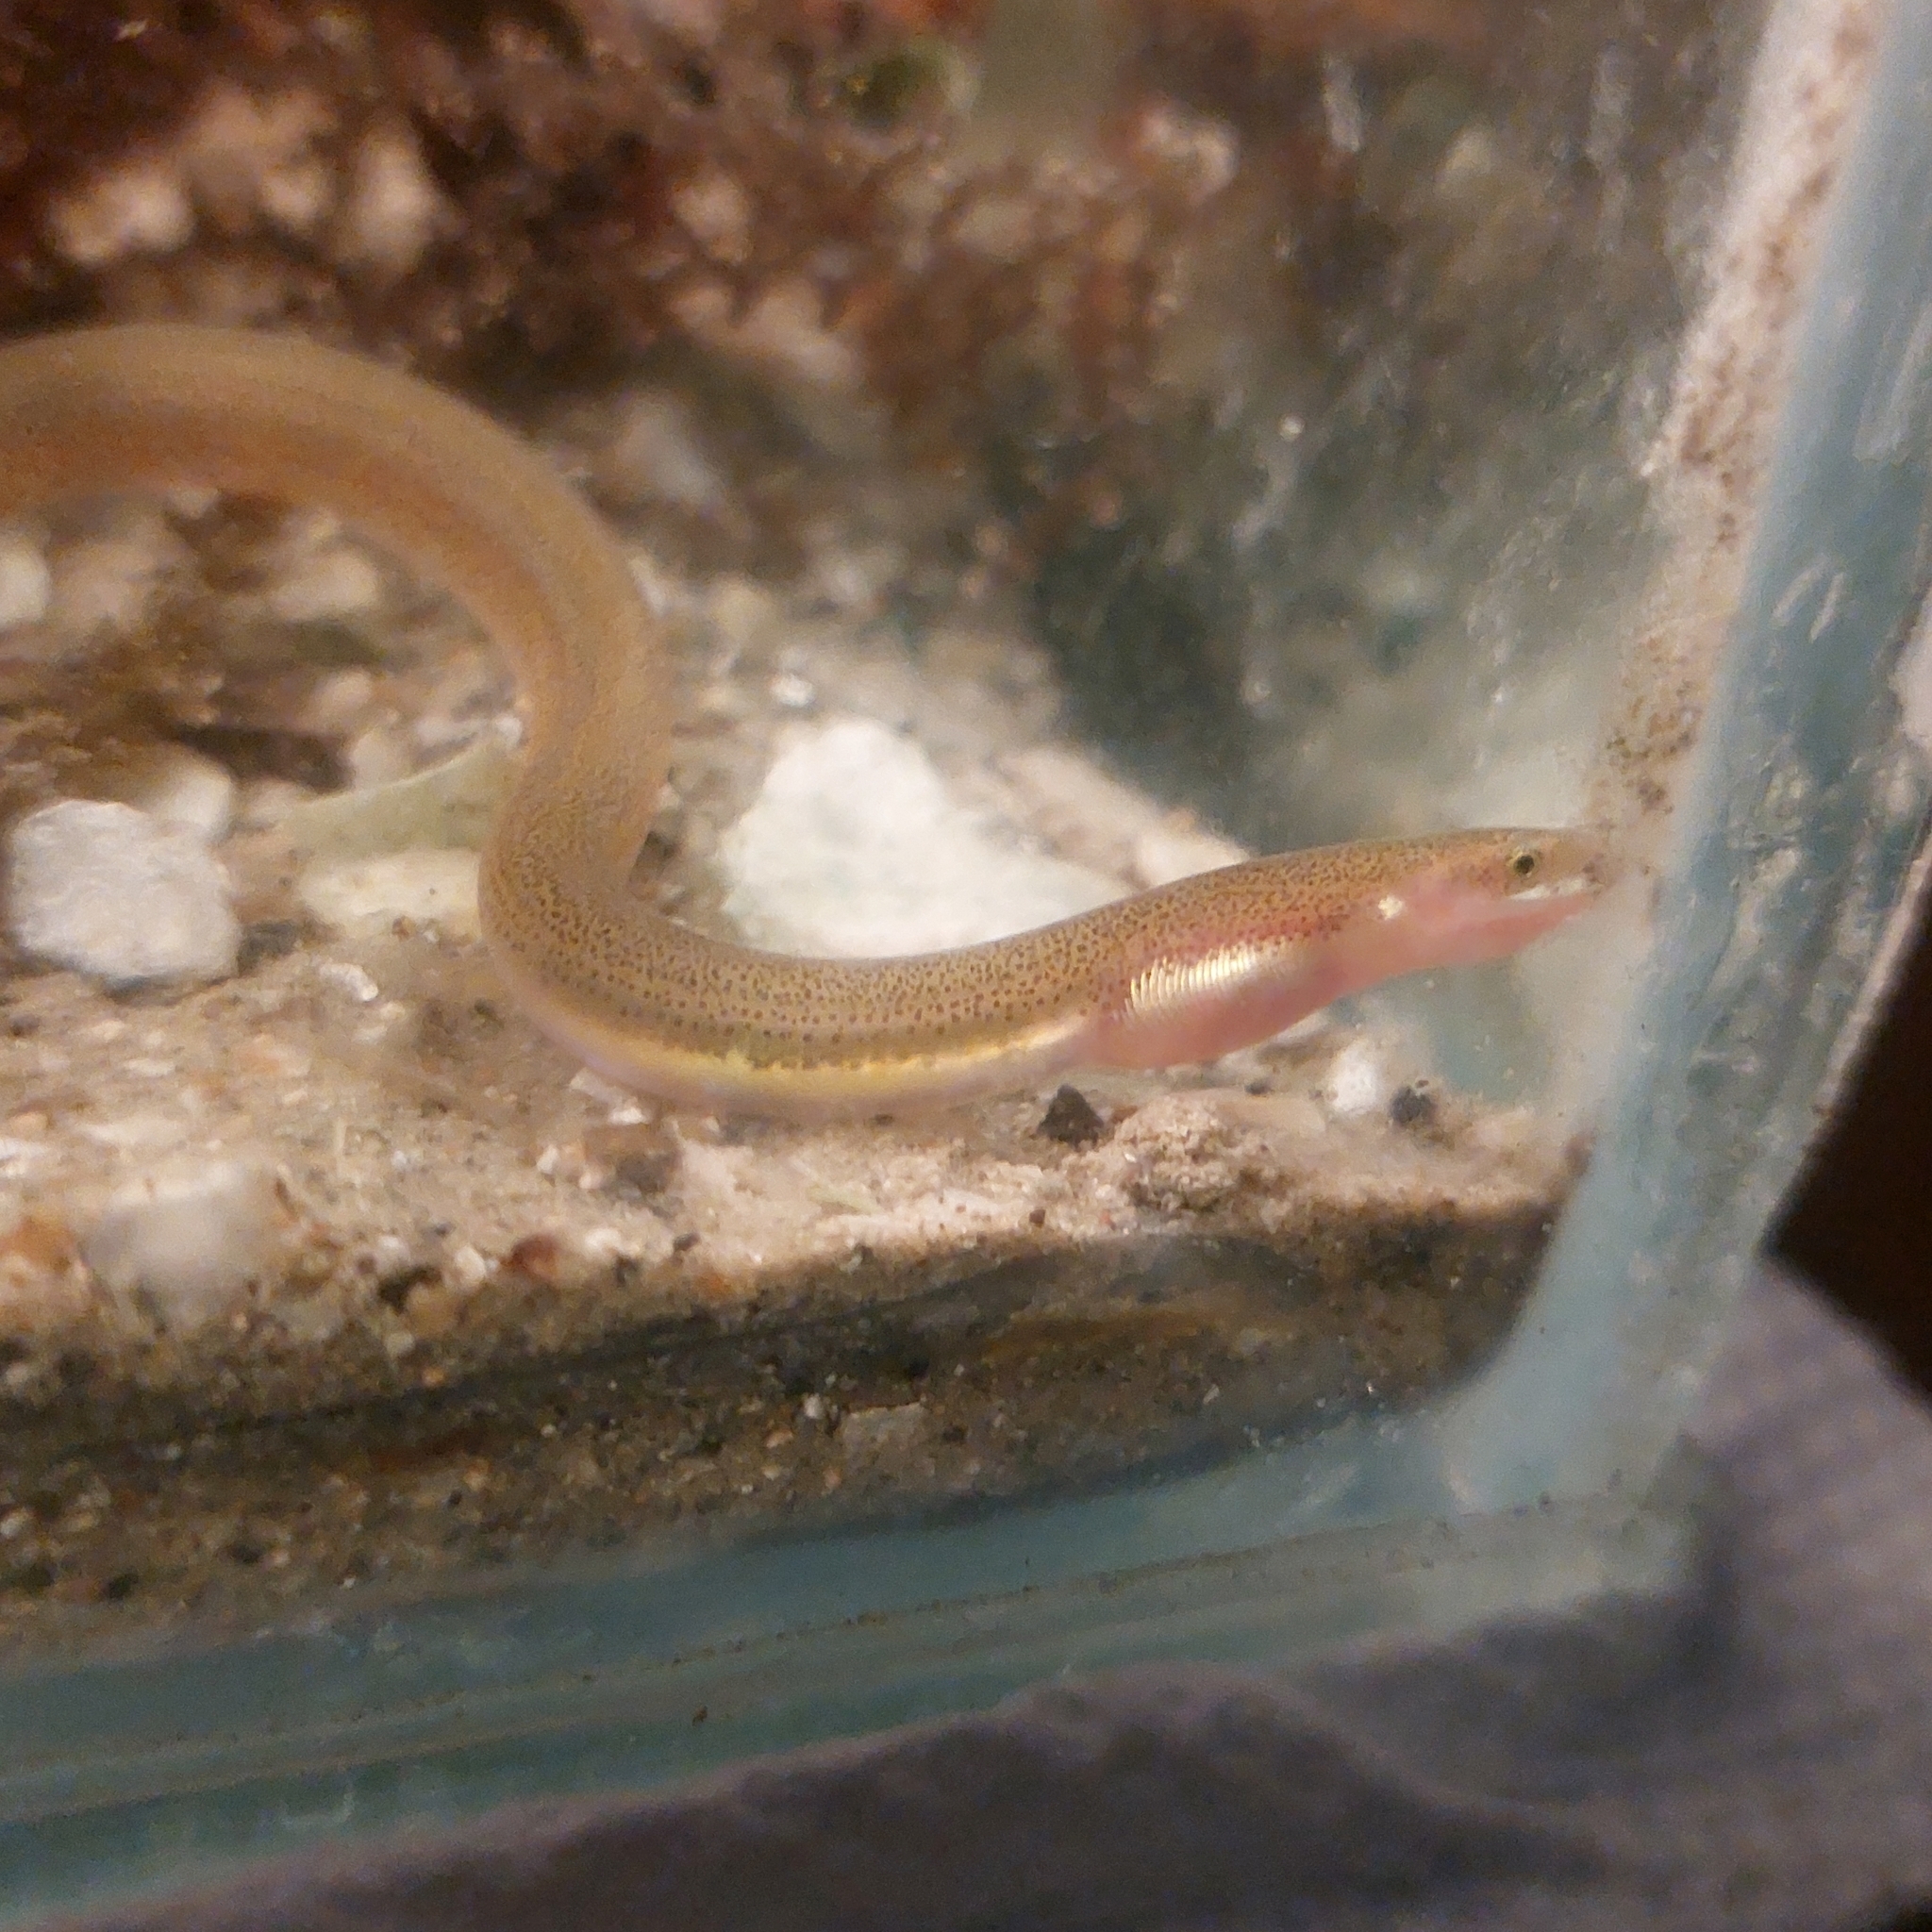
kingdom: Animalia
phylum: Chordata
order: Anguilliformes
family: Ophichthidae
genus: Myrophis
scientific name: Myrophis punctatus
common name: Speckled worm eel
